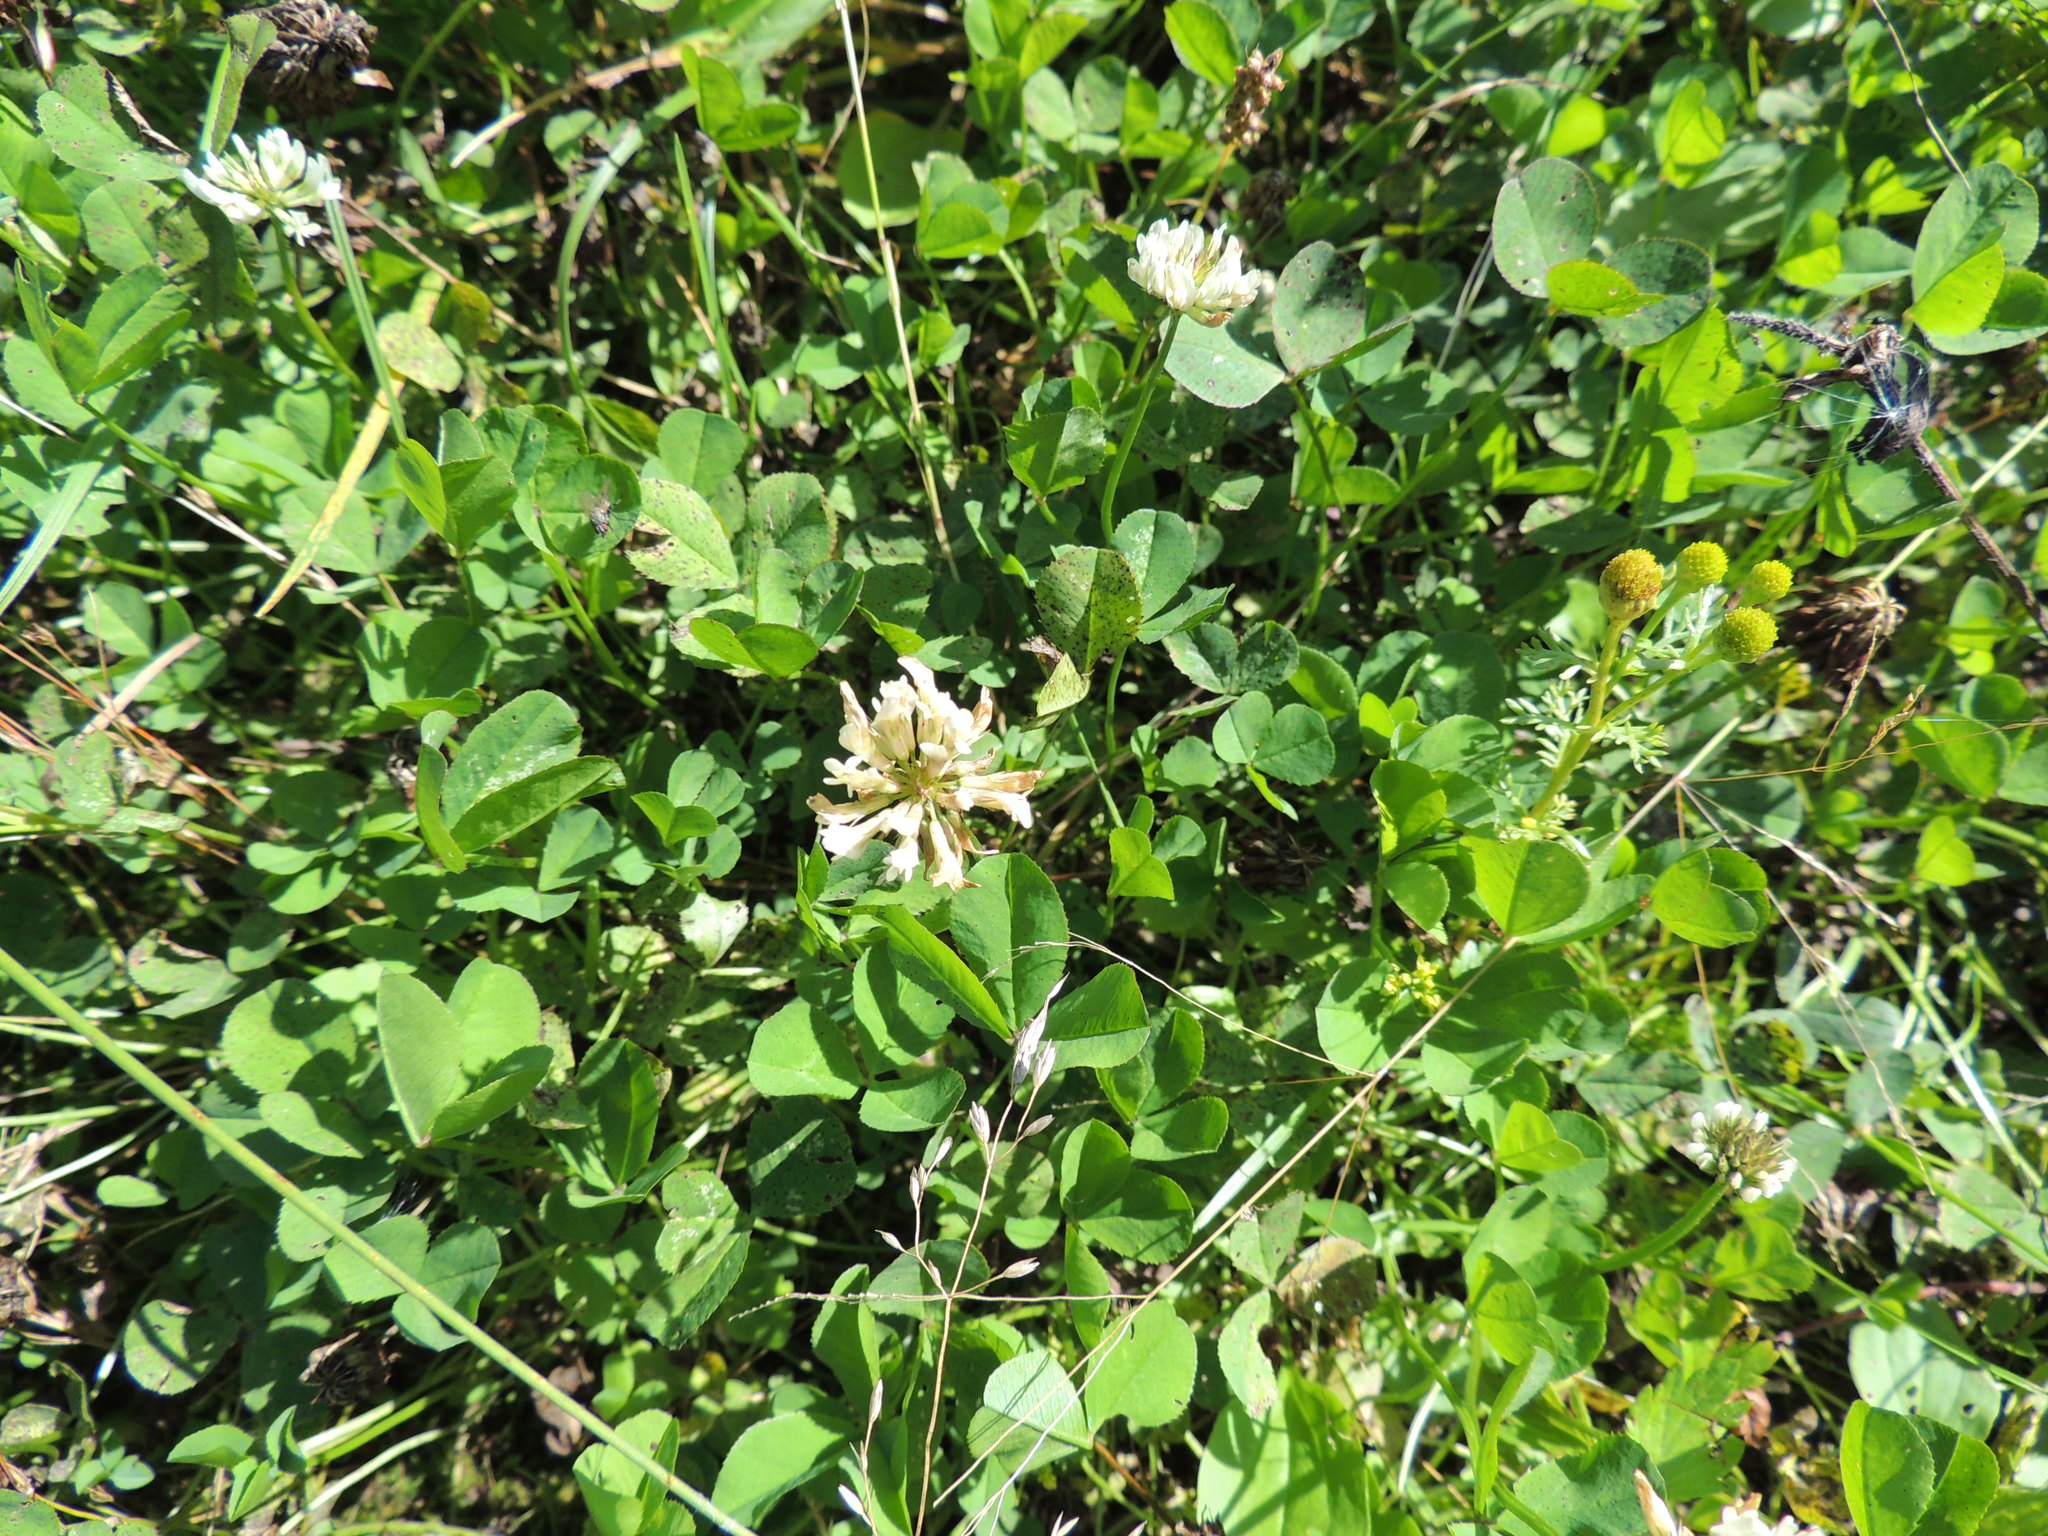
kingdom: Plantae
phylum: Tracheophyta
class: Magnoliopsida
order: Fabales
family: Fabaceae
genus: Trifolium
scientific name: Trifolium repens
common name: White clover
